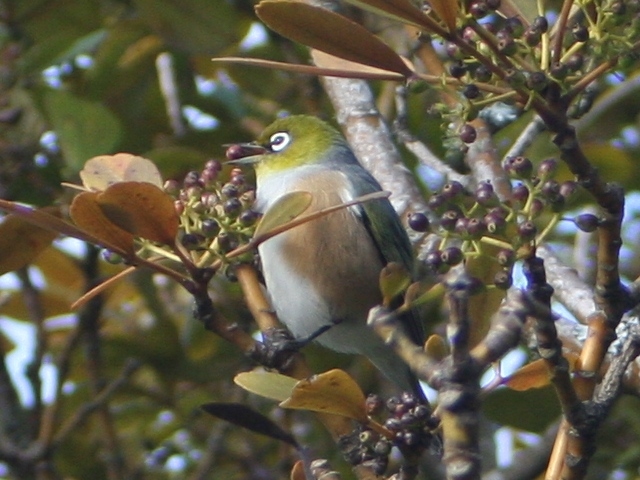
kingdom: Plantae
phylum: Tracheophyta
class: Magnoliopsida
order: Apiales
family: Araliaceae
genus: Pseudopanax
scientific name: Pseudopanax lessonii
